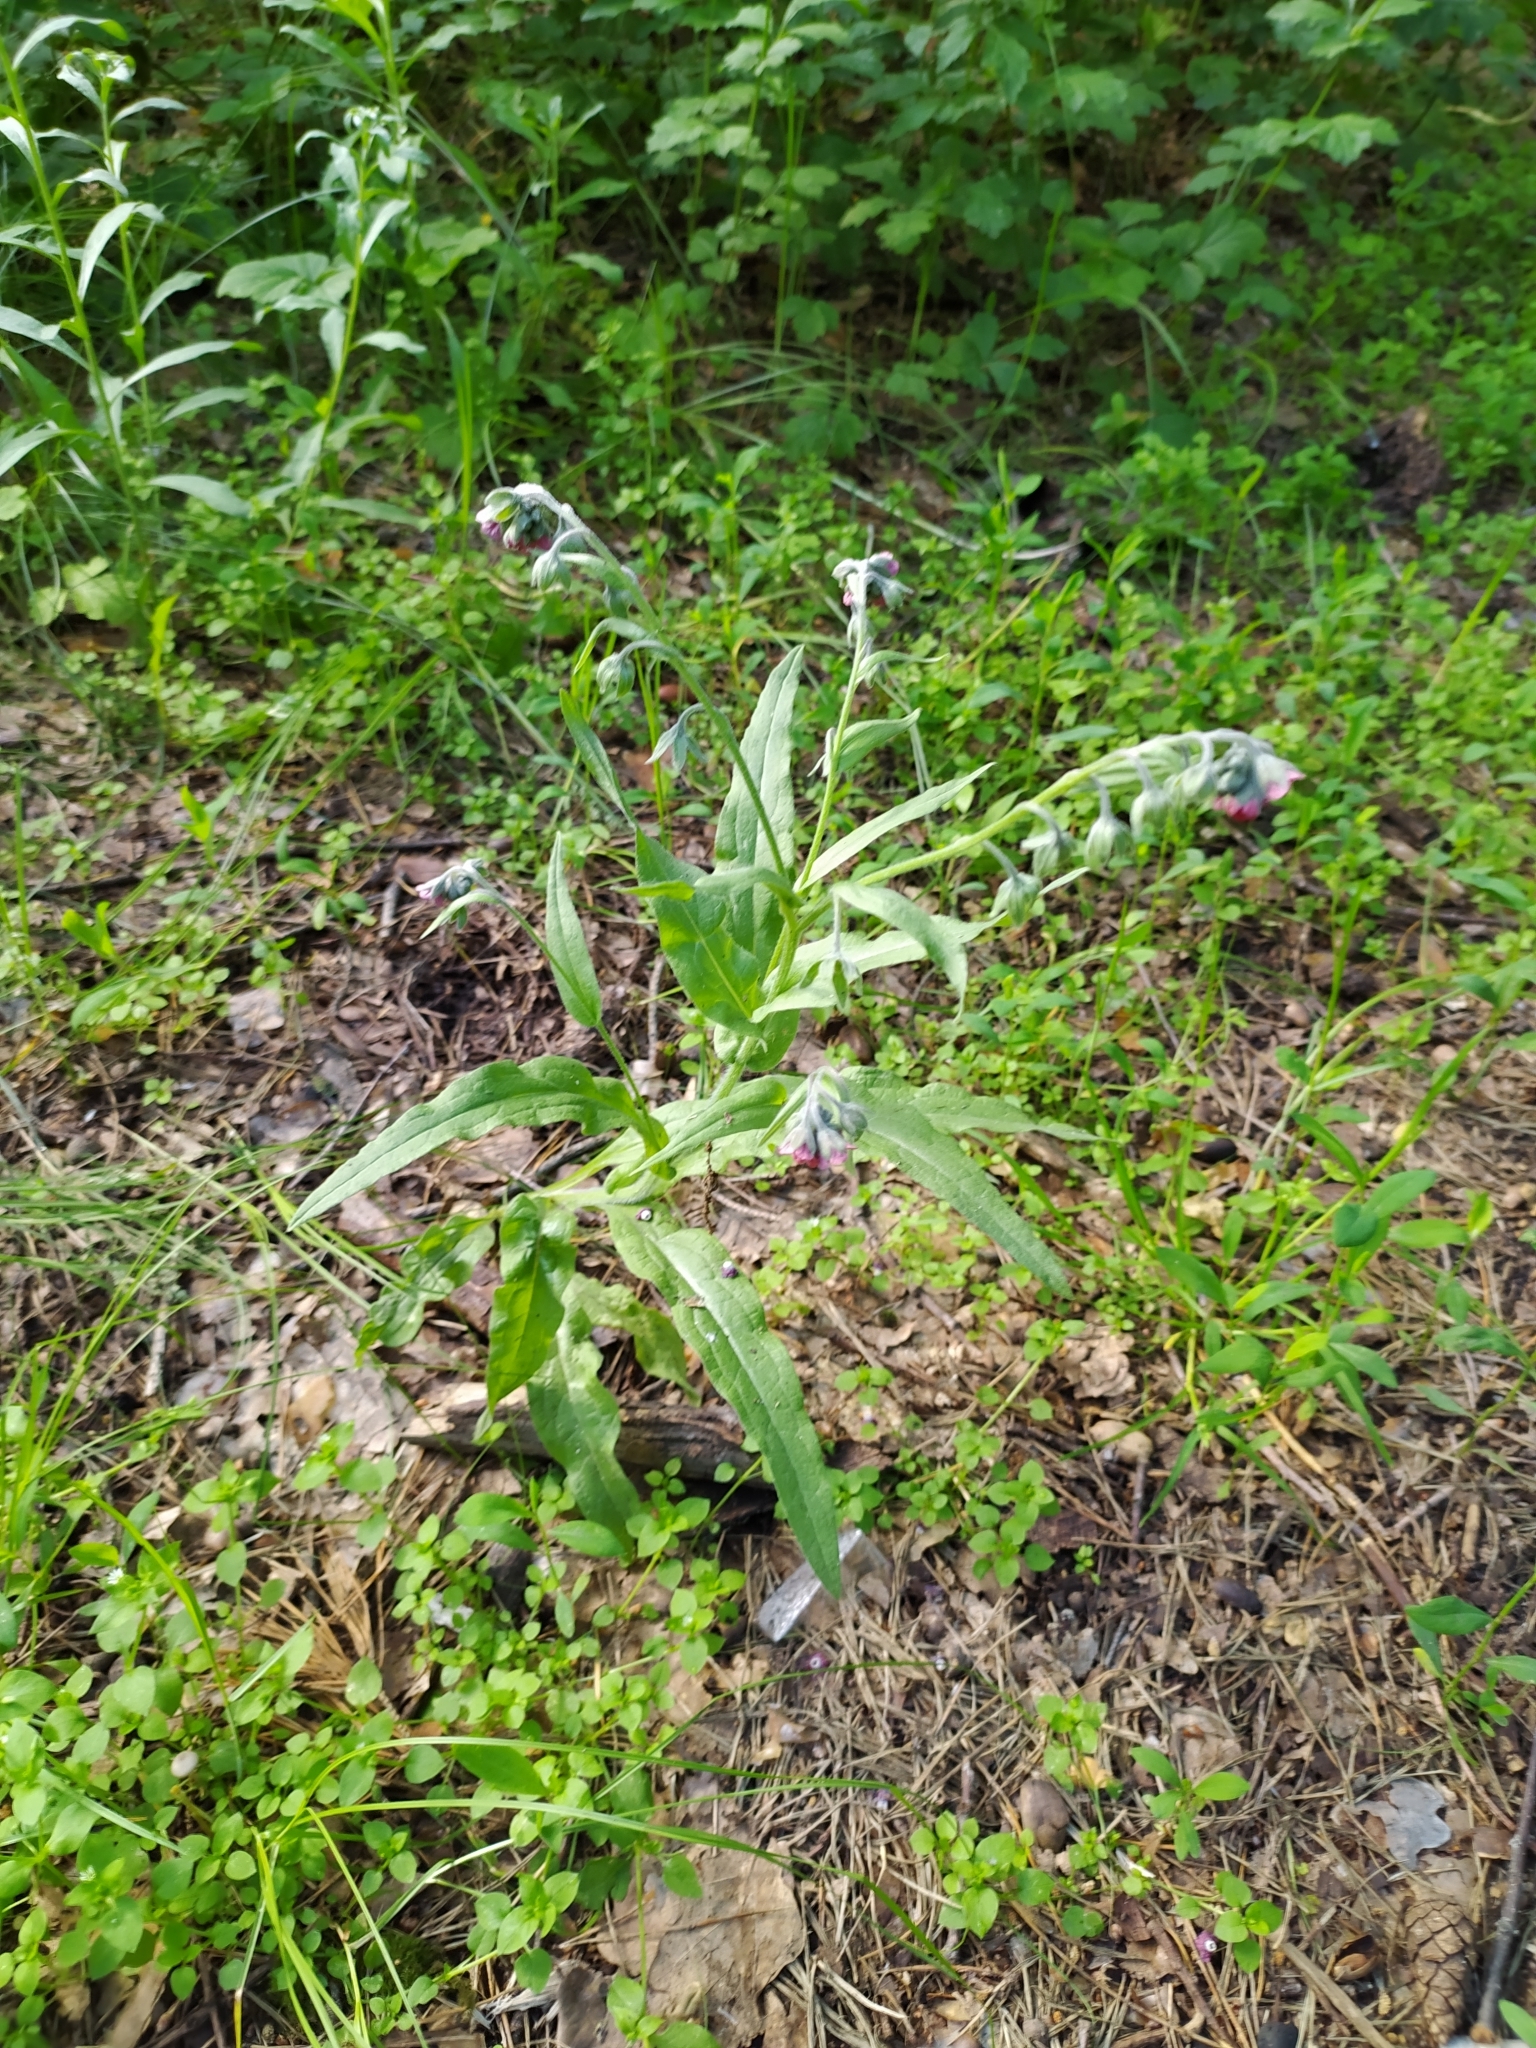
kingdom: Plantae
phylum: Tracheophyta
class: Magnoliopsida
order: Boraginales
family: Boraginaceae
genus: Cynoglossum
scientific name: Cynoglossum officinale
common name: Hound's-tongue
